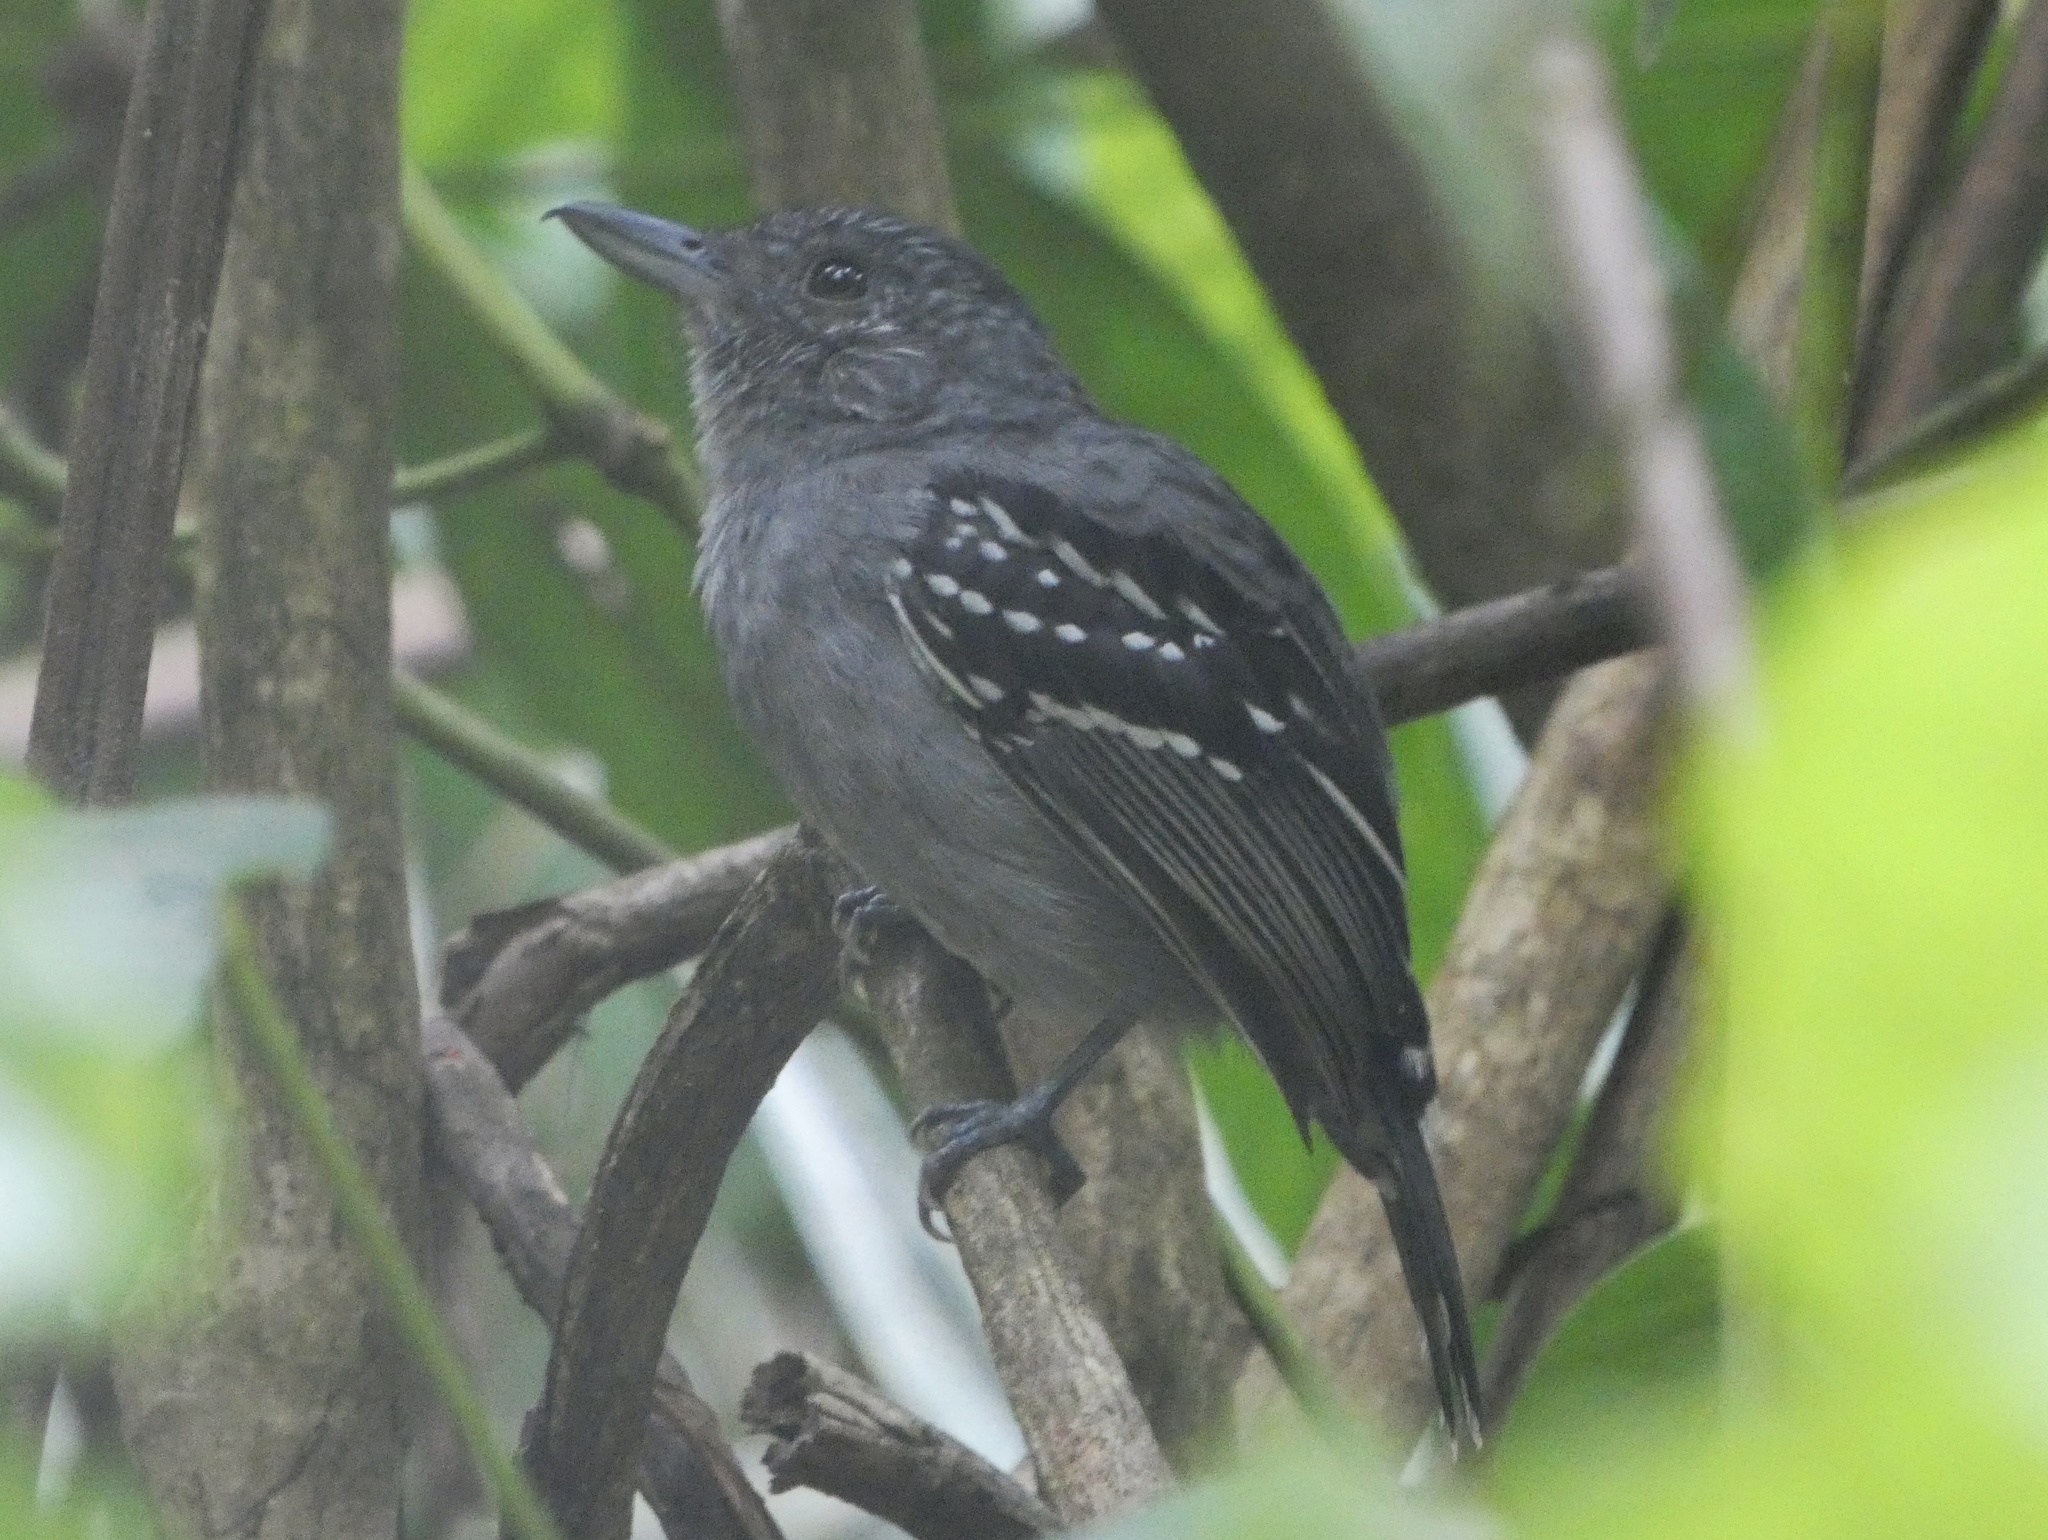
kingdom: Animalia
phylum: Chordata
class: Aves
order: Passeriformes
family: Thamnophilidae
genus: Thamnophilus
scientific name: Thamnophilus atrinucha
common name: Black-crowned antshrike
